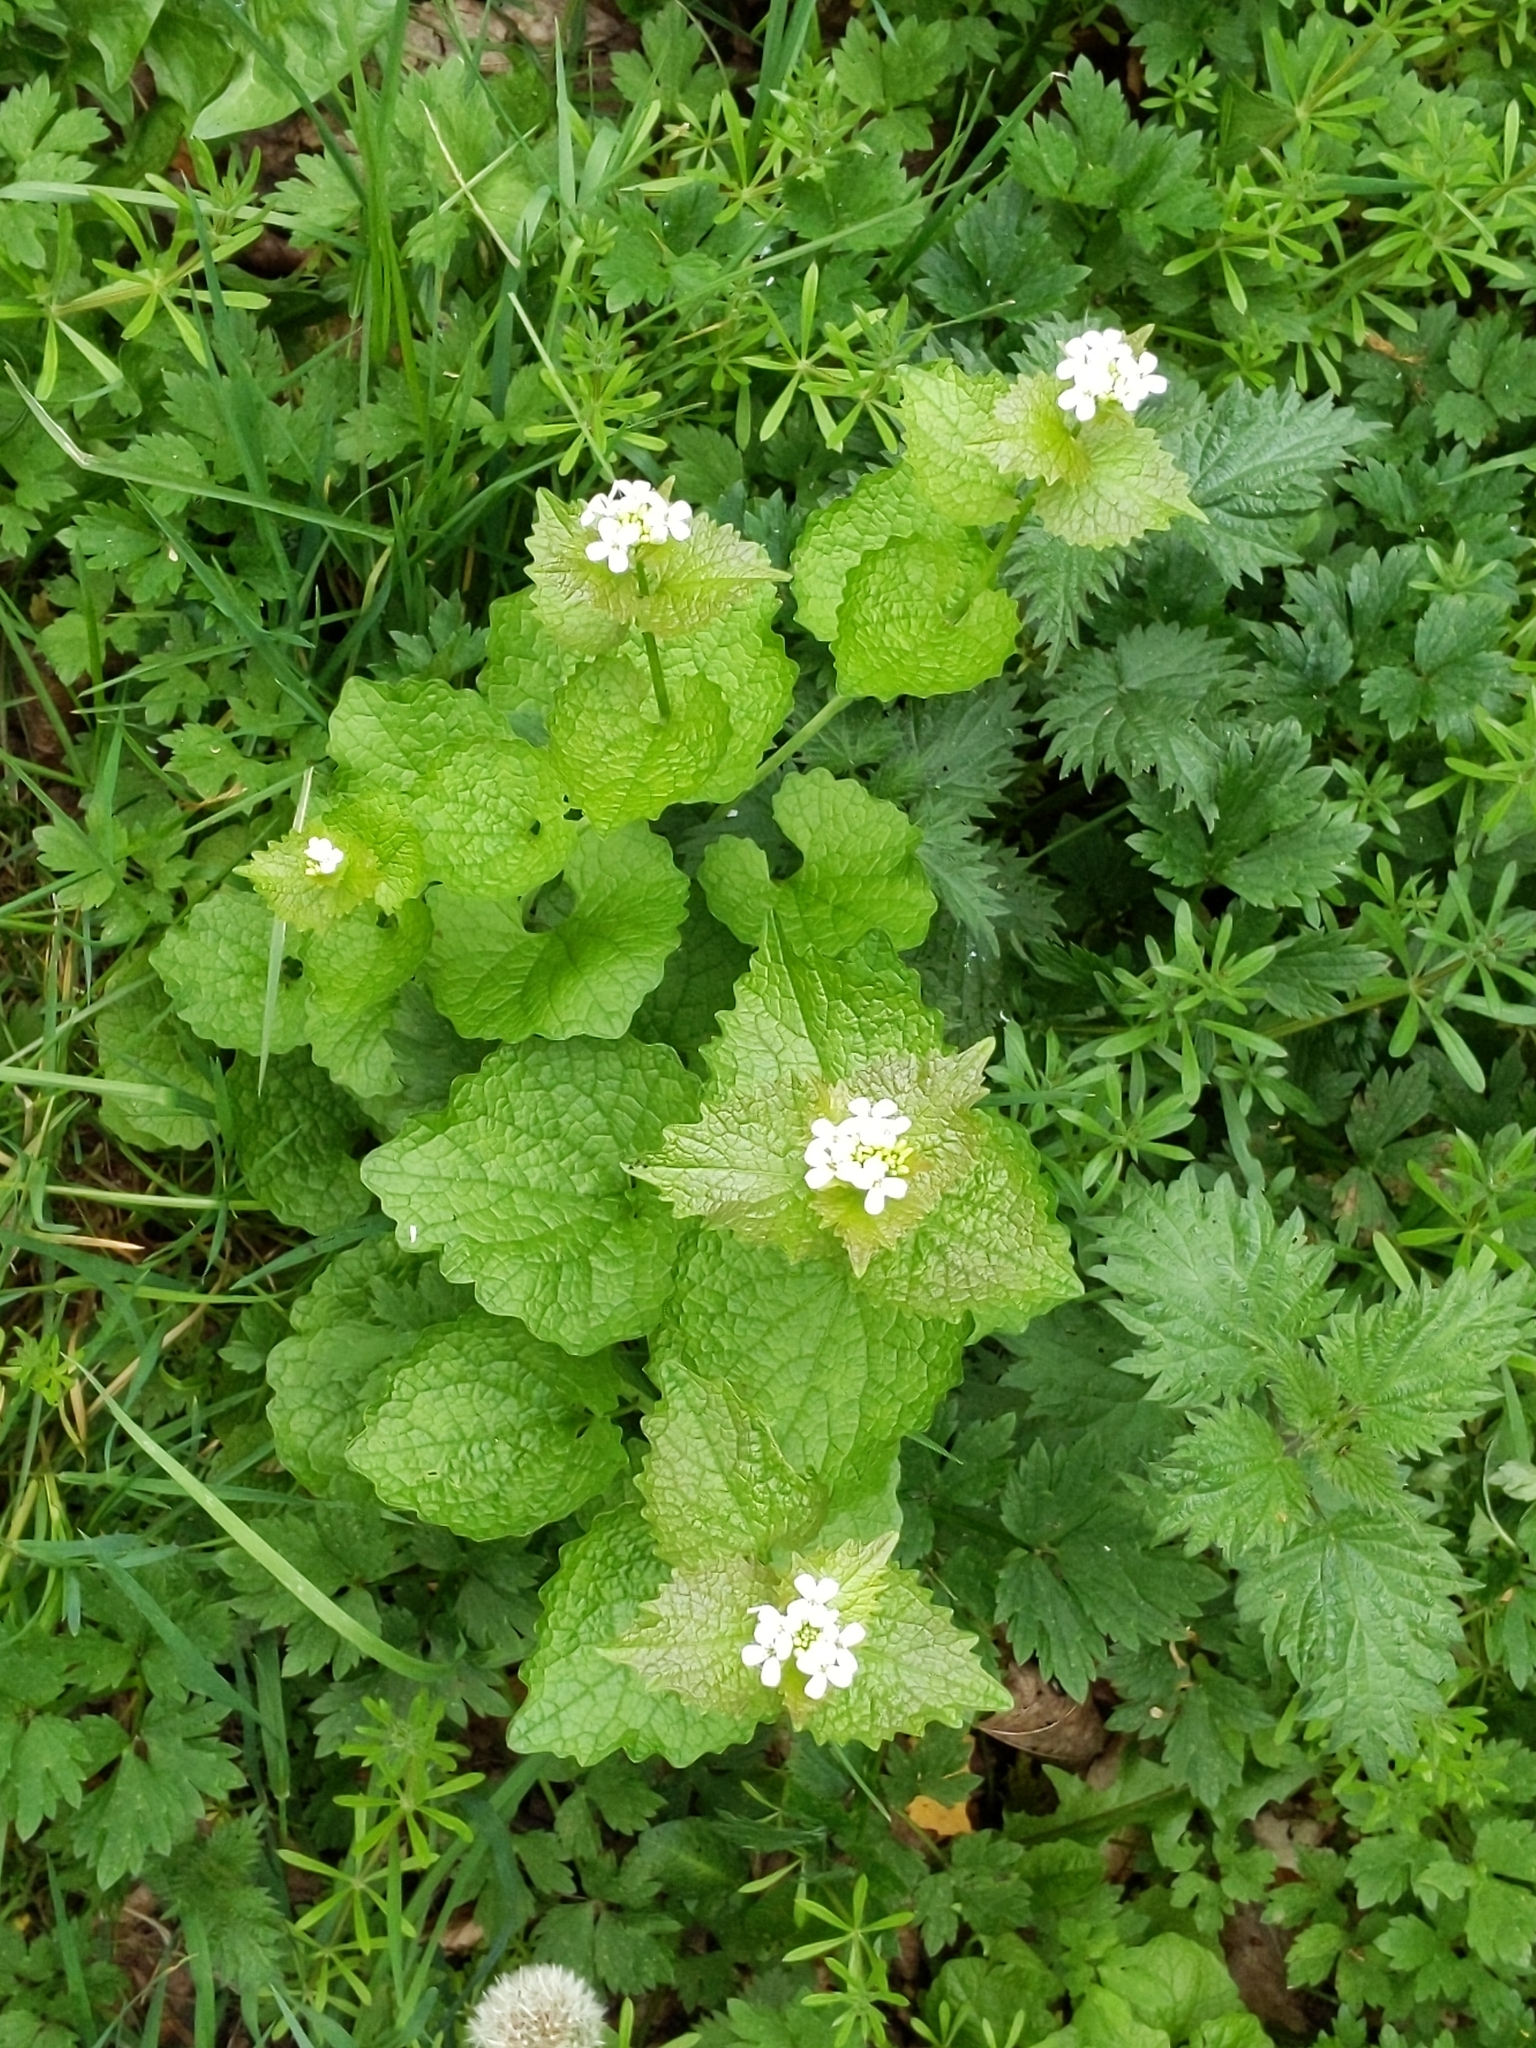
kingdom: Plantae
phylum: Tracheophyta
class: Magnoliopsida
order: Brassicales
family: Brassicaceae
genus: Alliaria
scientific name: Alliaria petiolata
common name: Garlic mustard
